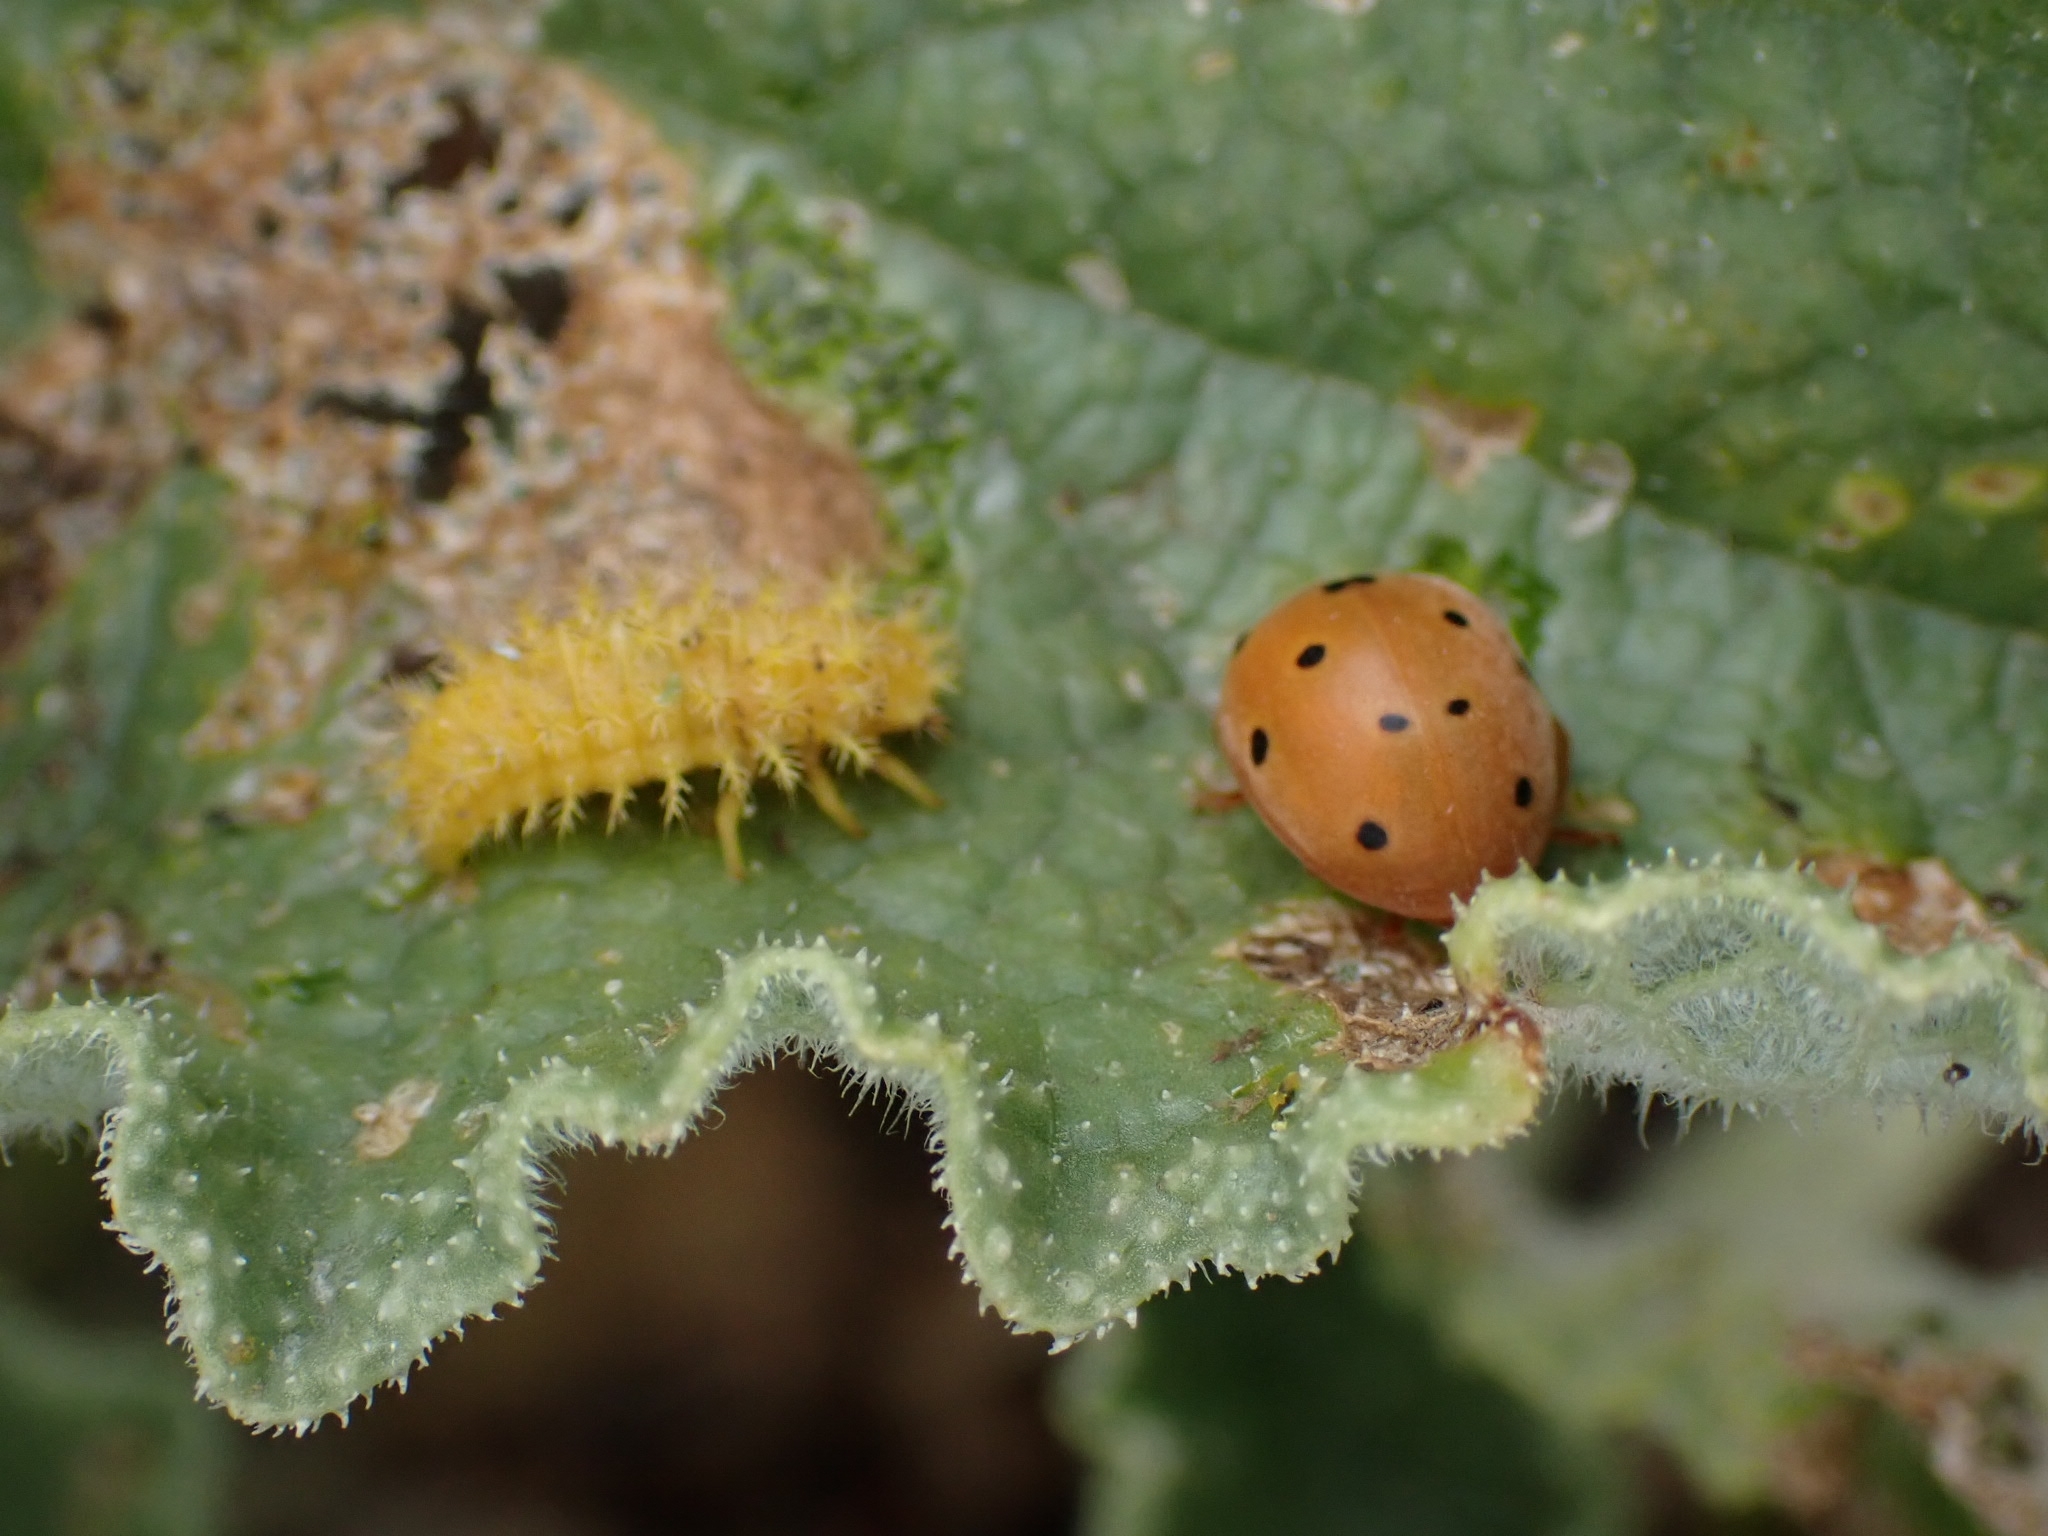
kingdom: Animalia
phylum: Arthropoda
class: Insecta
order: Coleoptera
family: Coccinellidae
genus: Henosepilachna
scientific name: Henosepilachna argus
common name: Bryony ladybird
